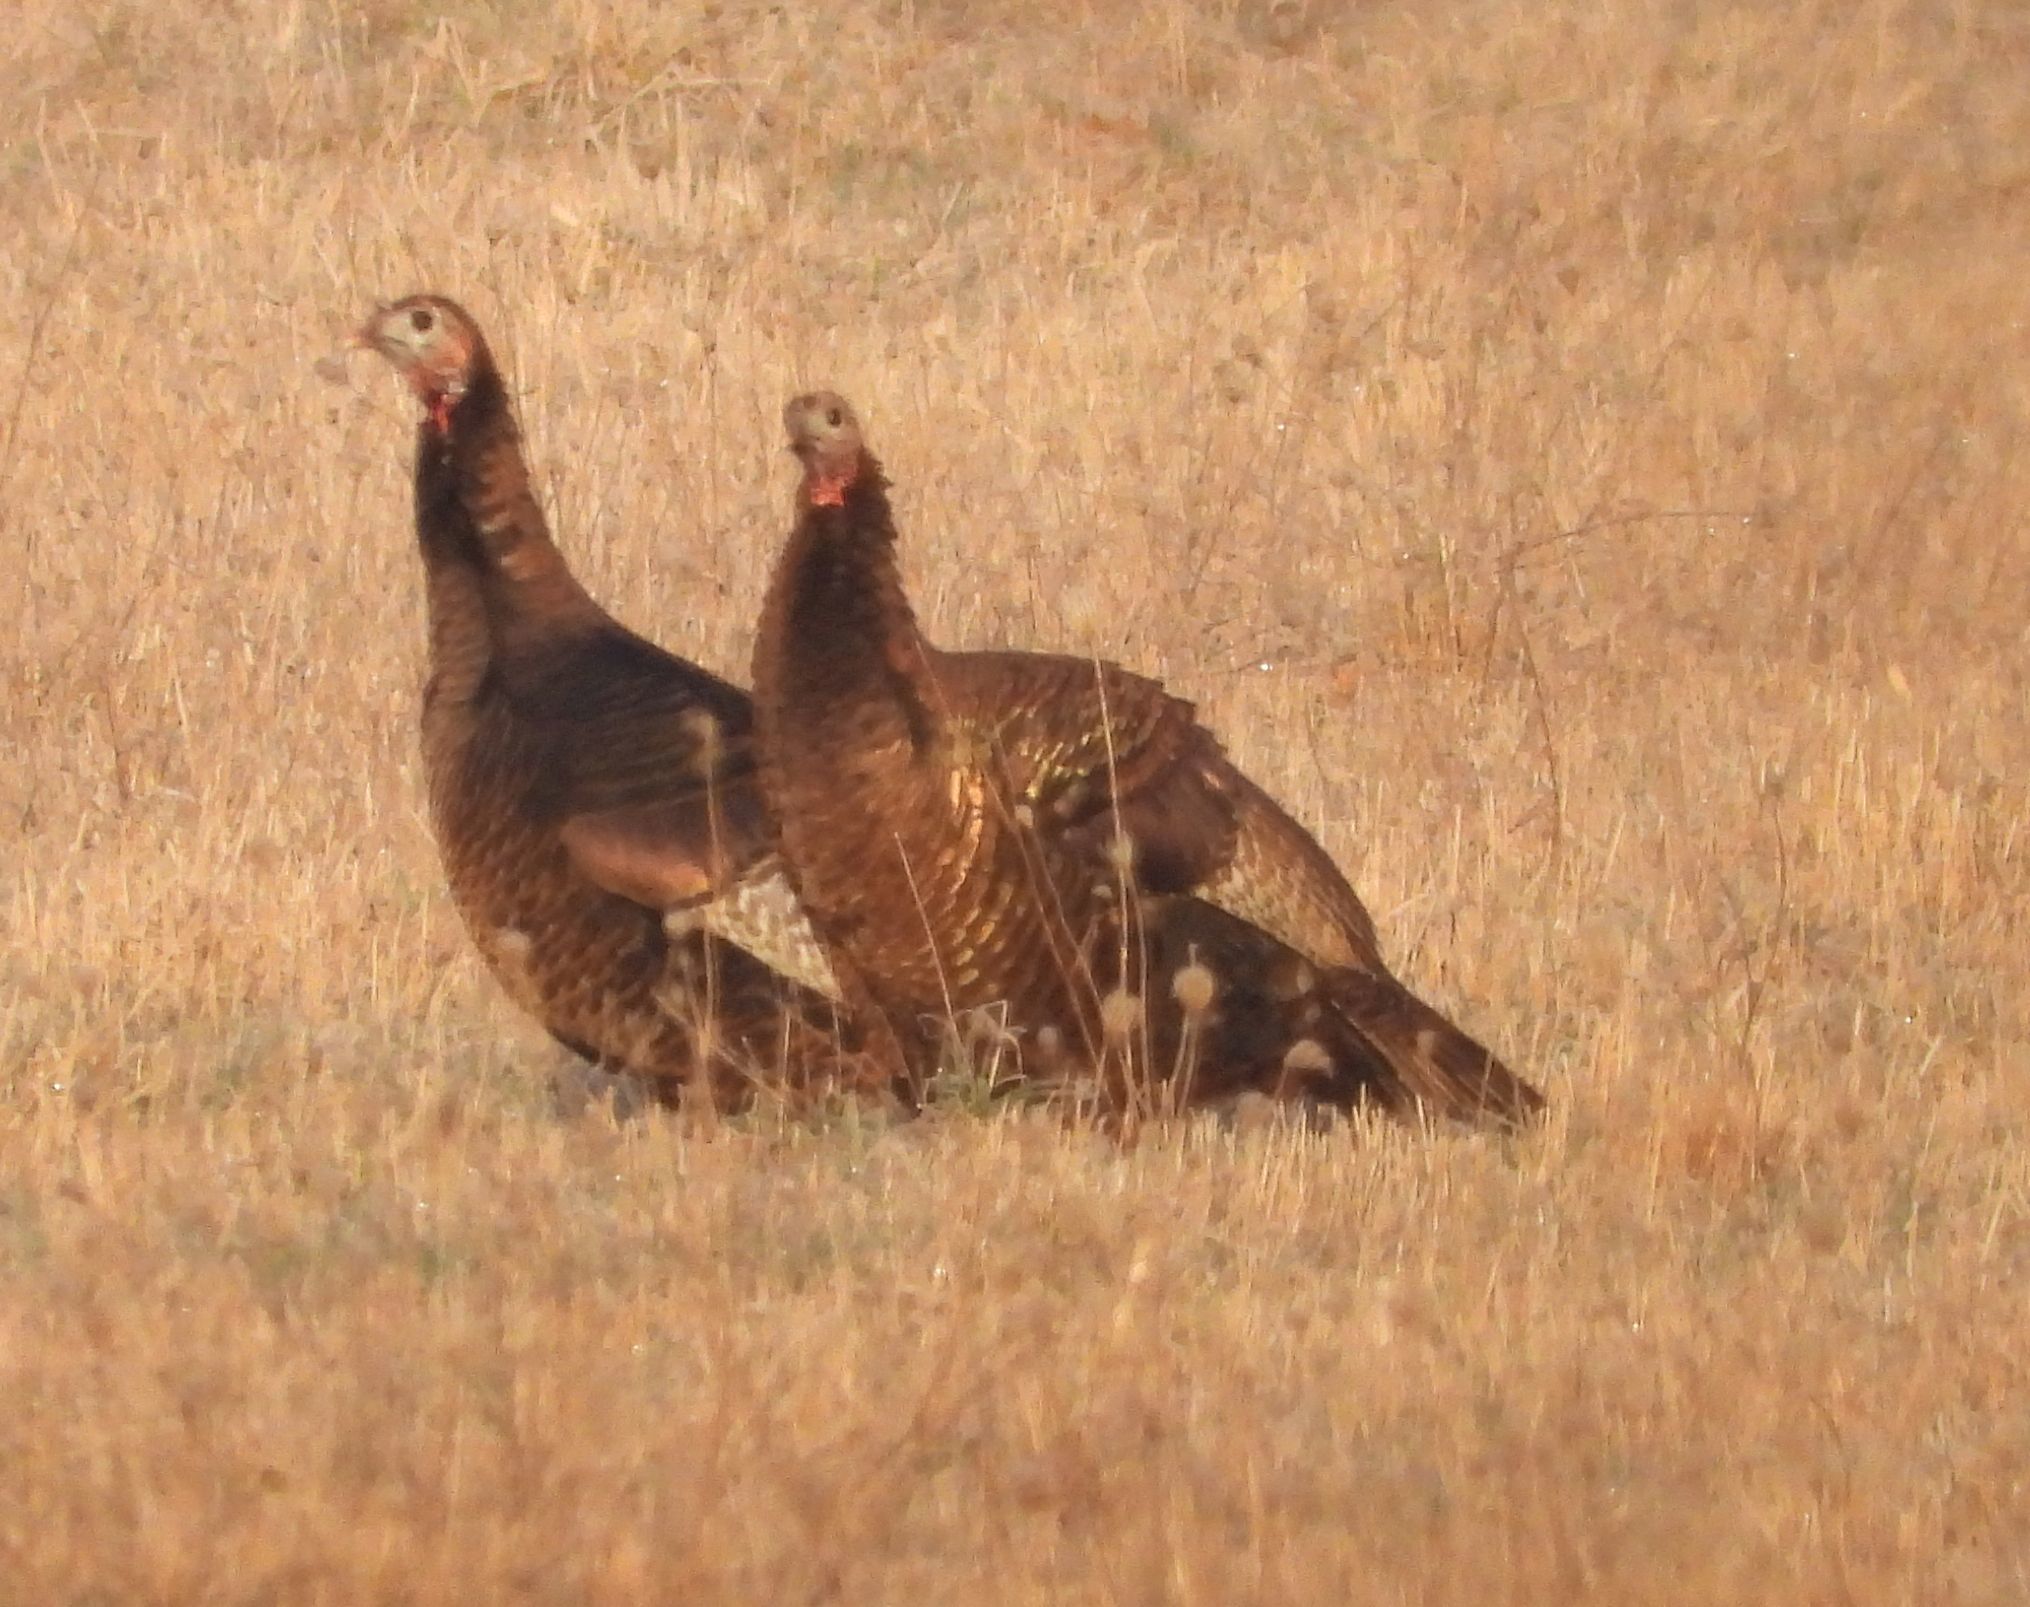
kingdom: Animalia
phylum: Chordata
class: Aves
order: Galliformes
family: Phasianidae
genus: Meleagris
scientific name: Meleagris gallopavo
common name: Wild turkey
